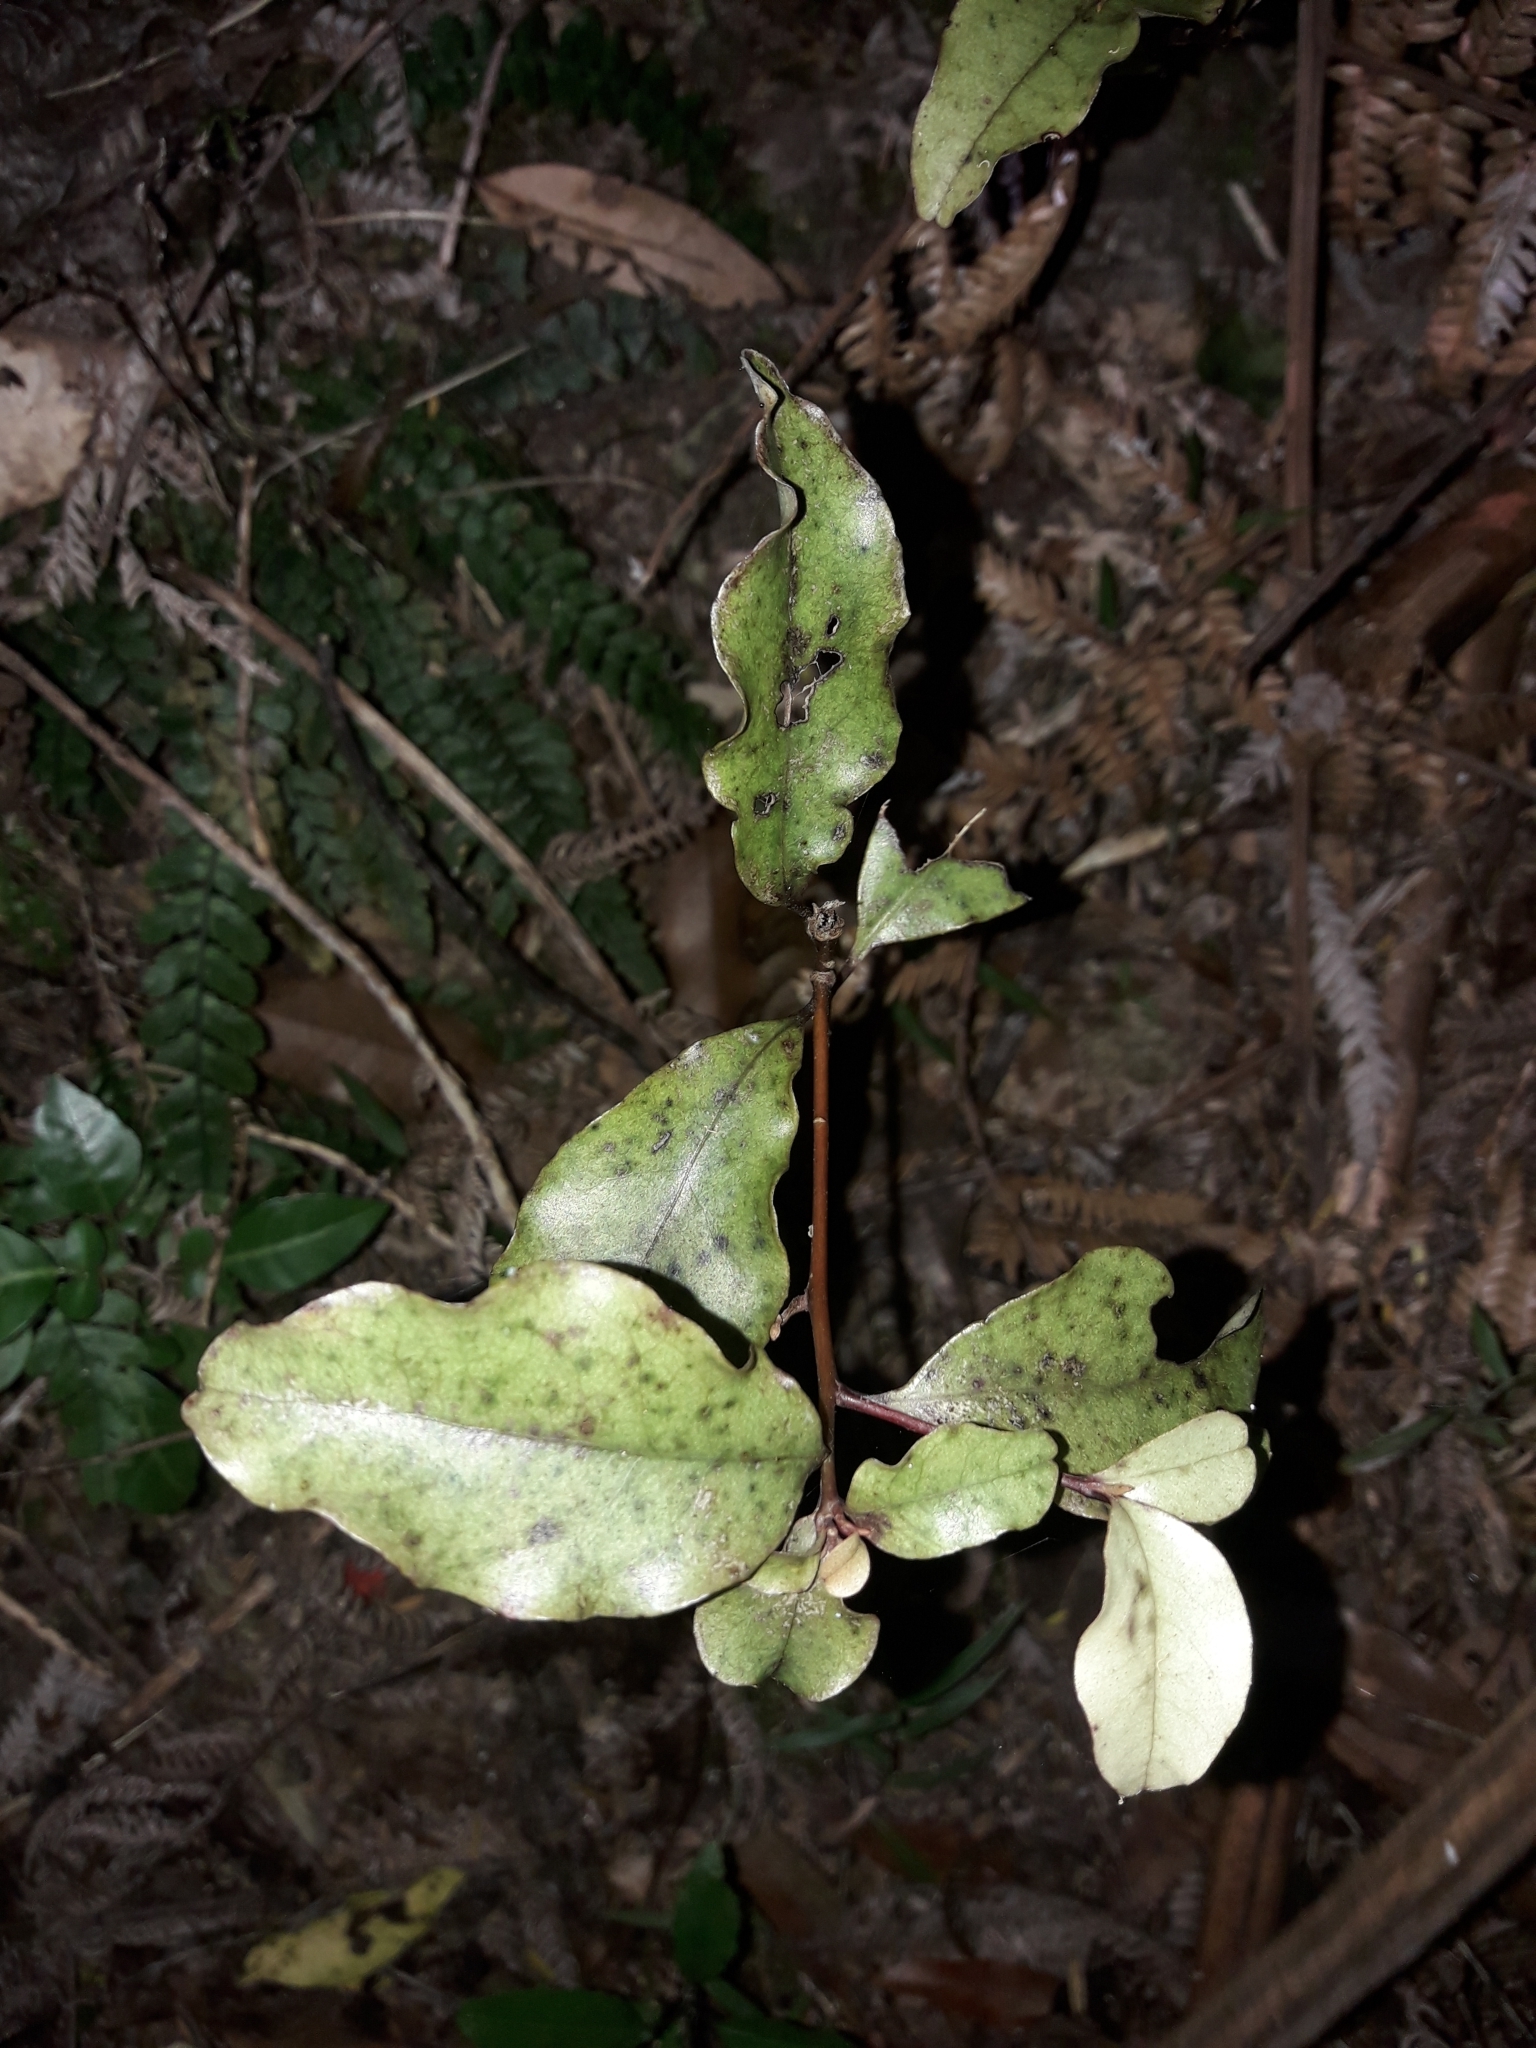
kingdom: Plantae
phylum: Tracheophyta
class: Magnoliopsida
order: Ericales
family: Primulaceae
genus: Myrsine
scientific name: Myrsine australis
